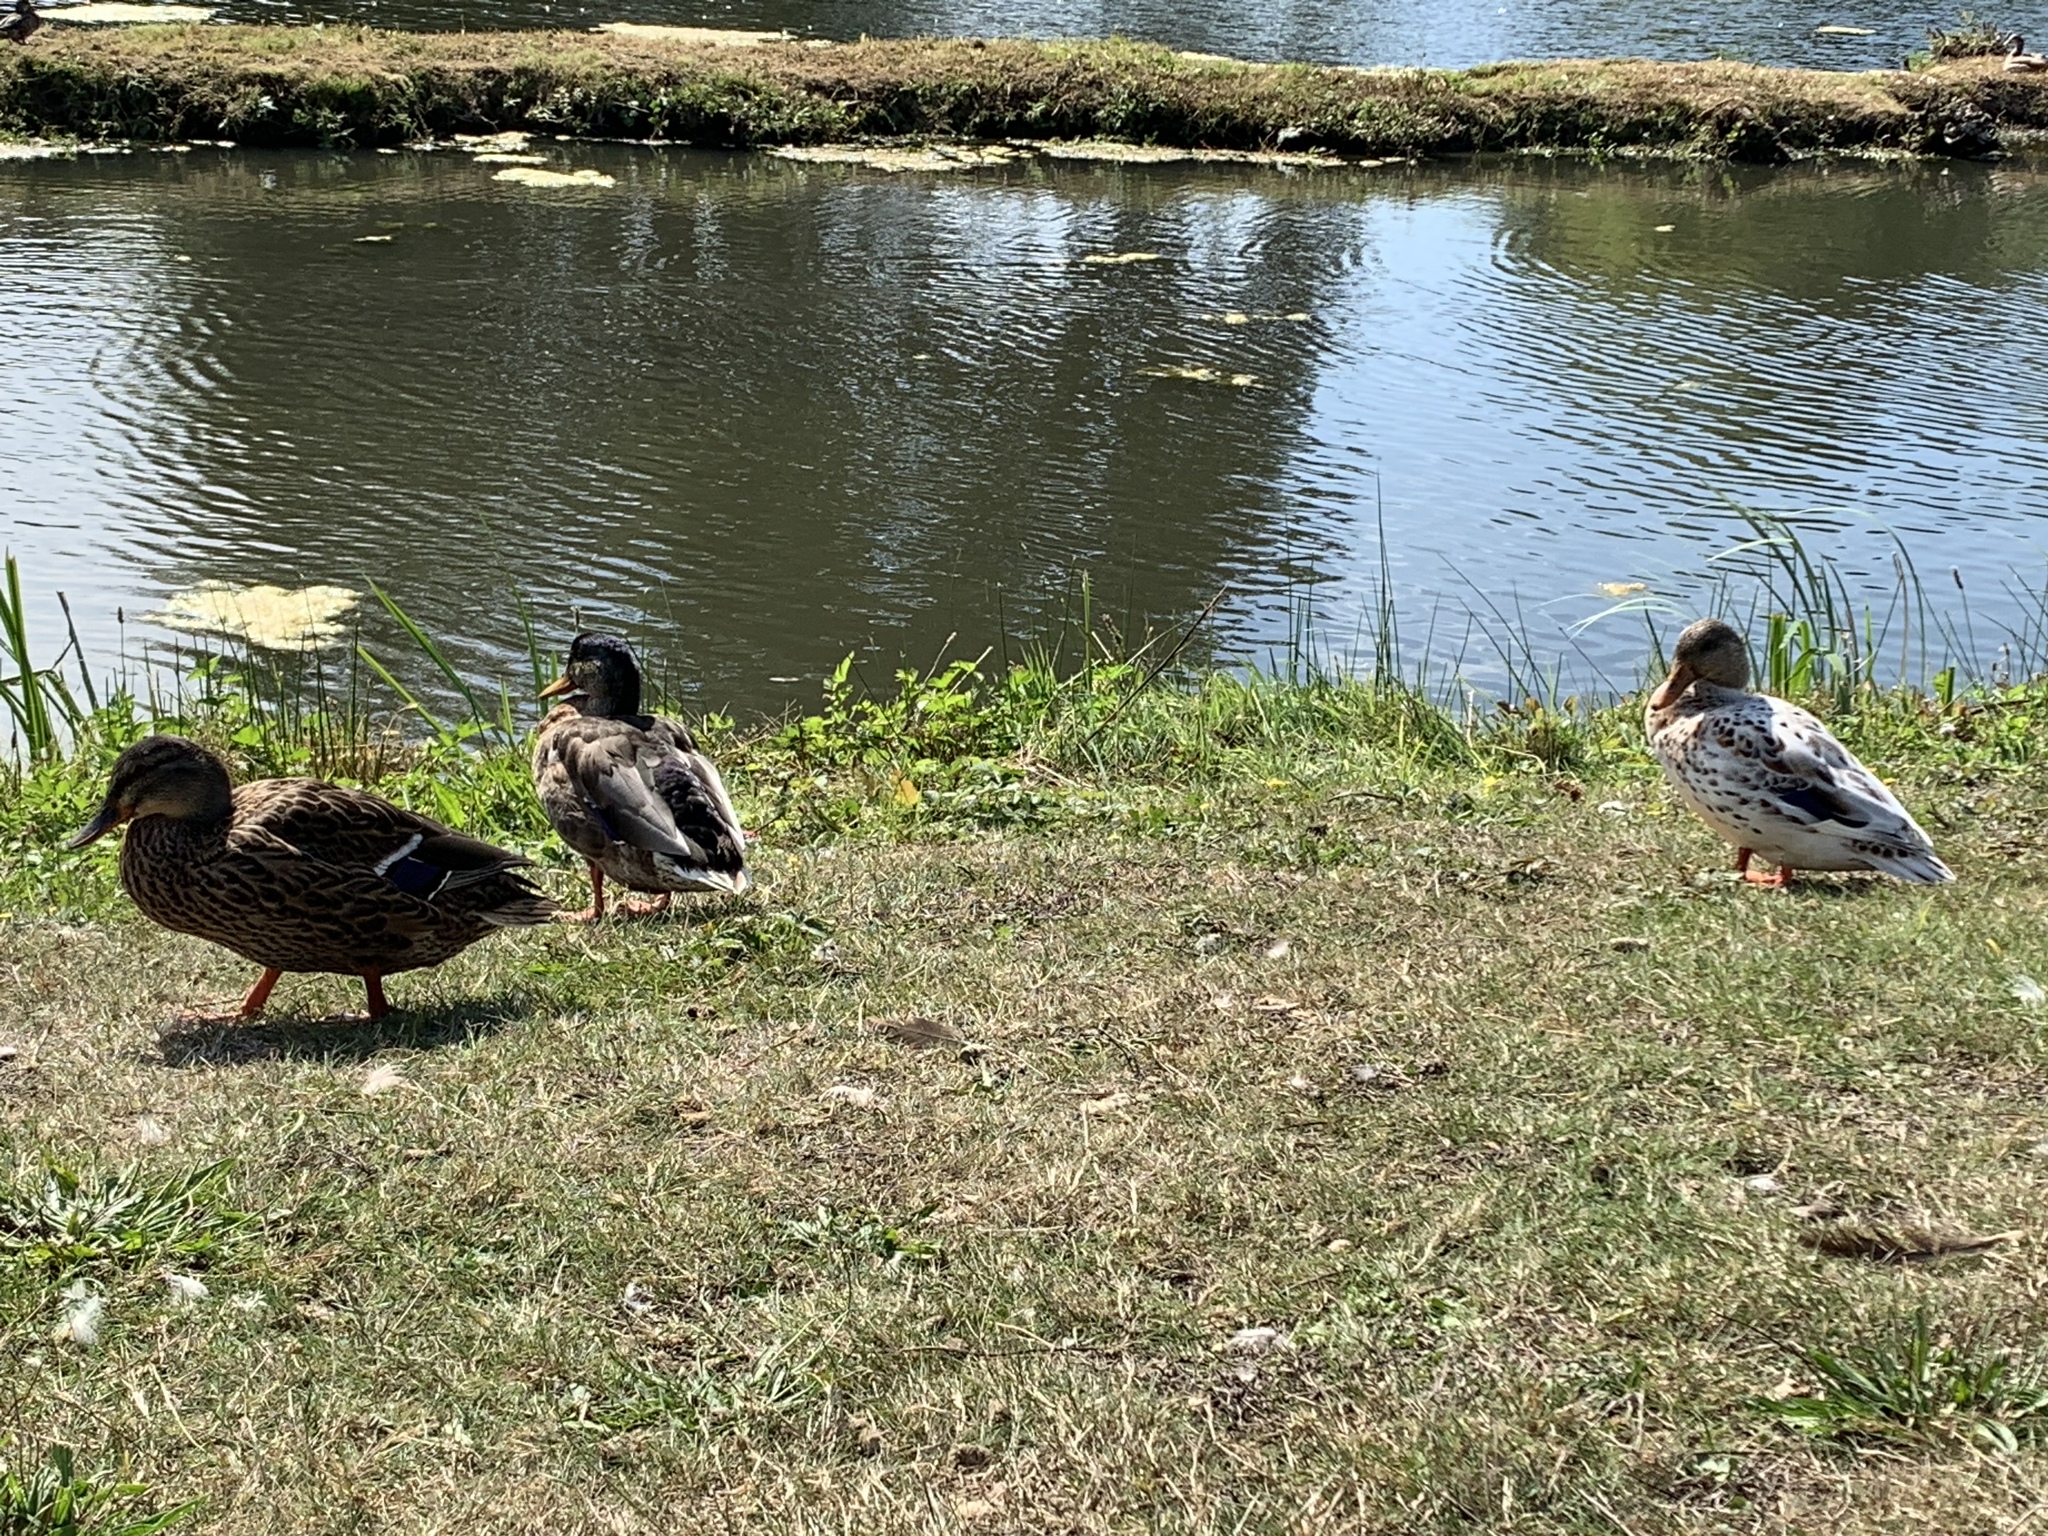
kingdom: Animalia
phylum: Chordata
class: Aves
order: Anseriformes
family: Anatidae
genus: Anas
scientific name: Anas platyrhynchos
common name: Mallard
